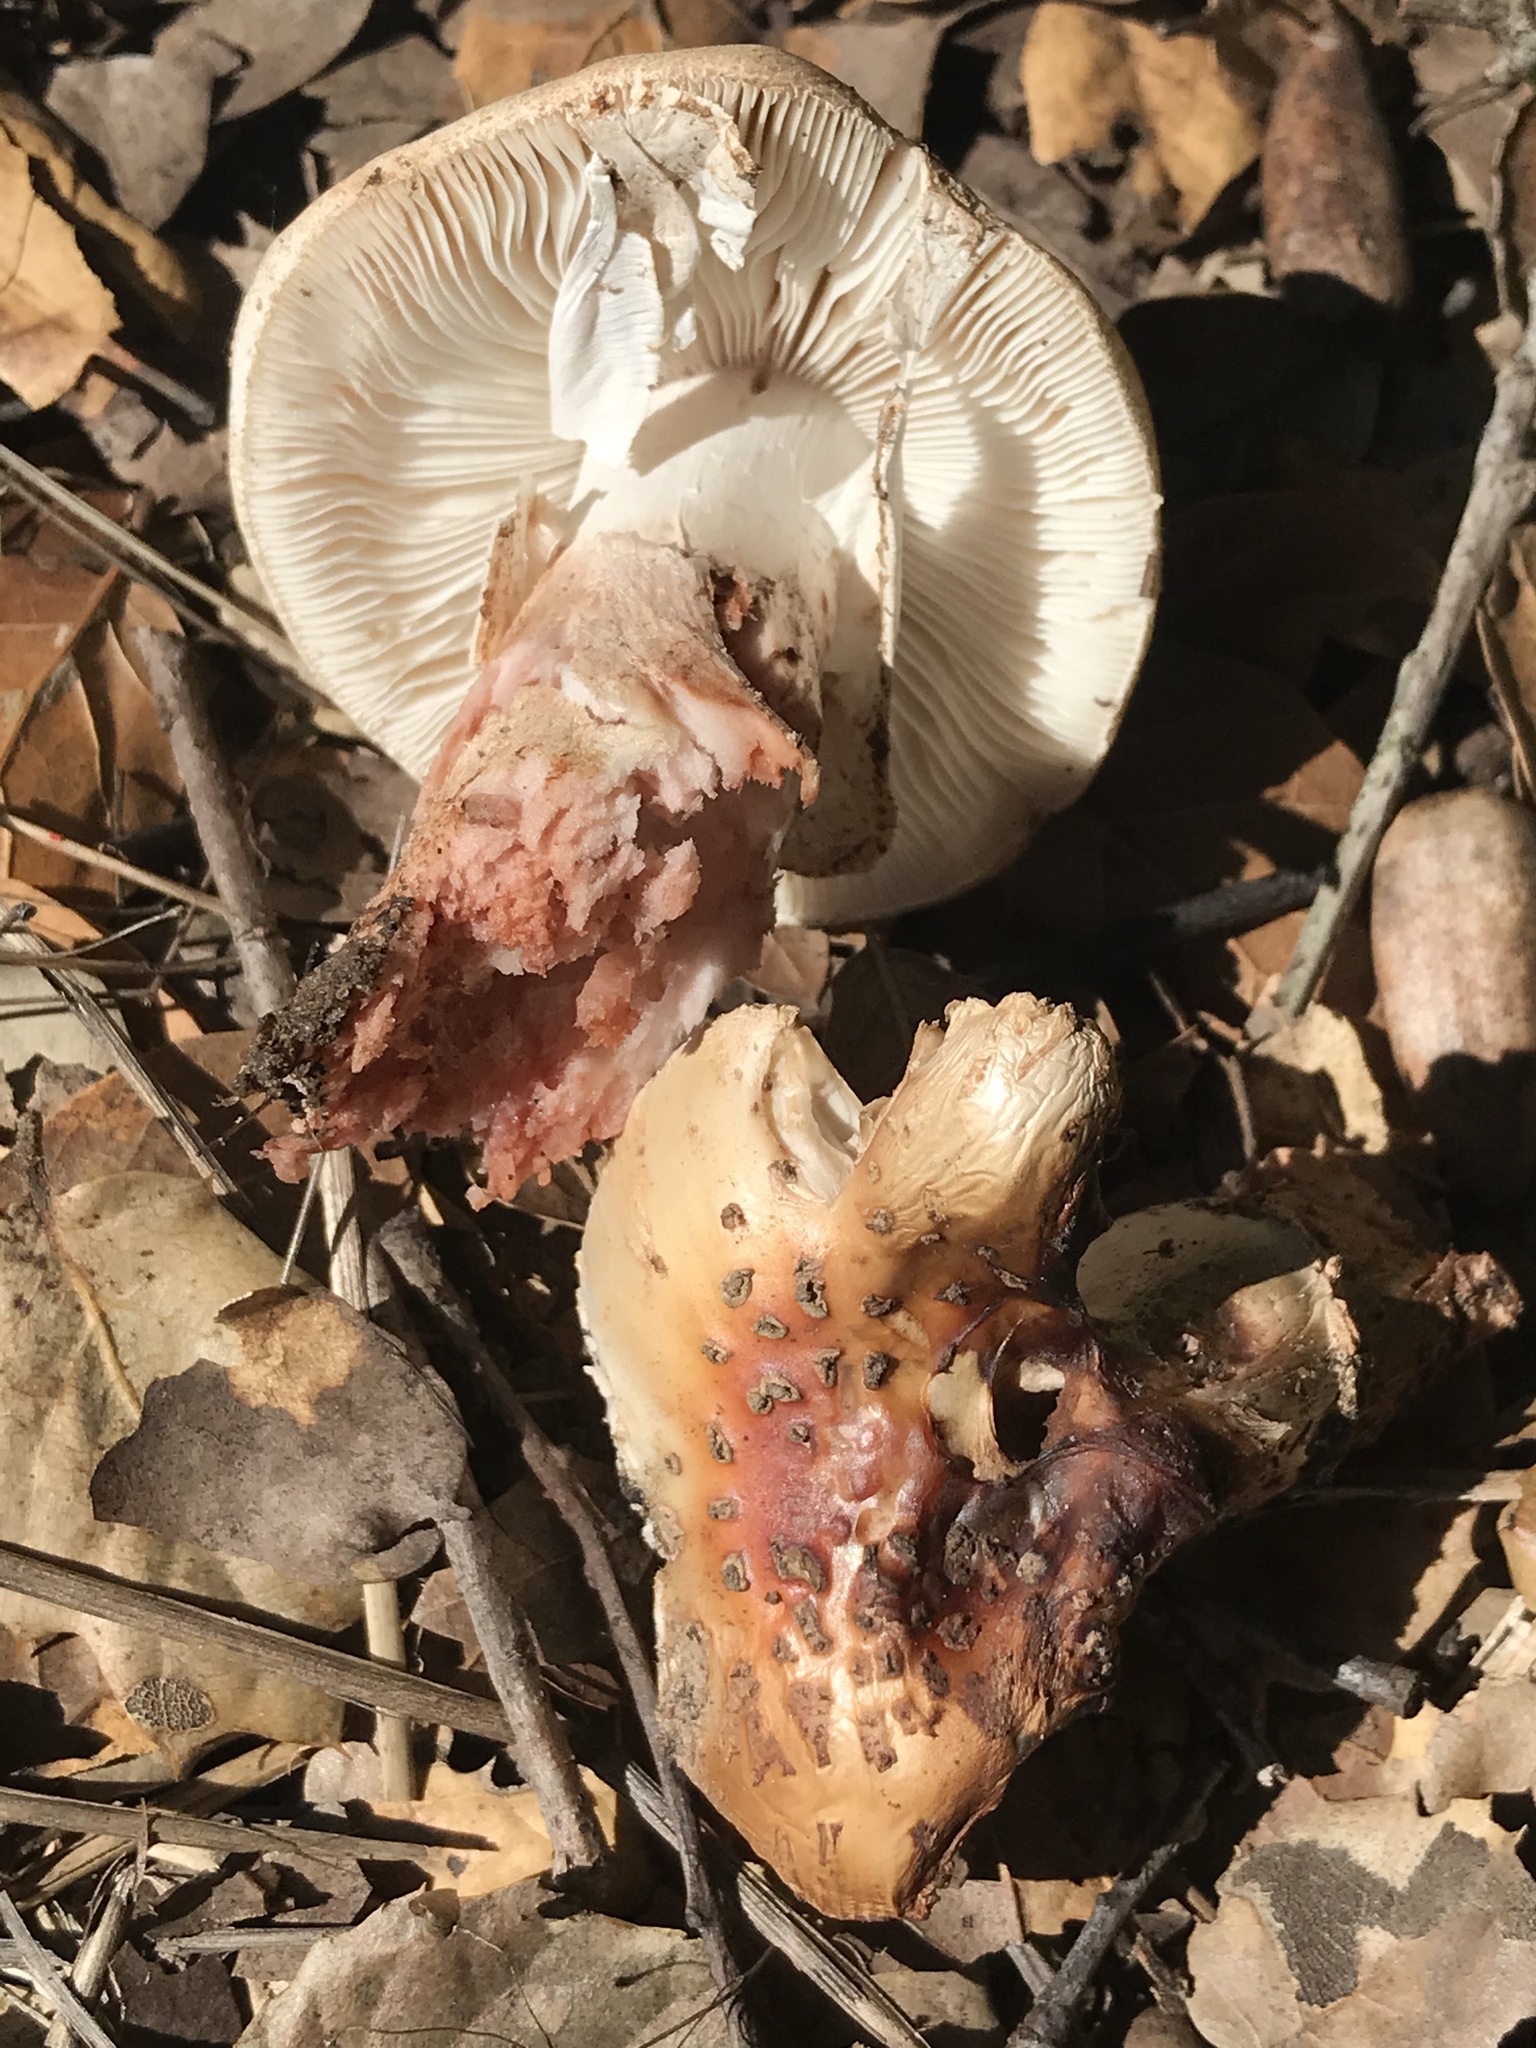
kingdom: Fungi
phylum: Basidiomycota
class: Agaricomycetes
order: Agaricales
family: Amanitaceae
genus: Amanita
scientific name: Amanita novinupta
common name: Blushing bride
